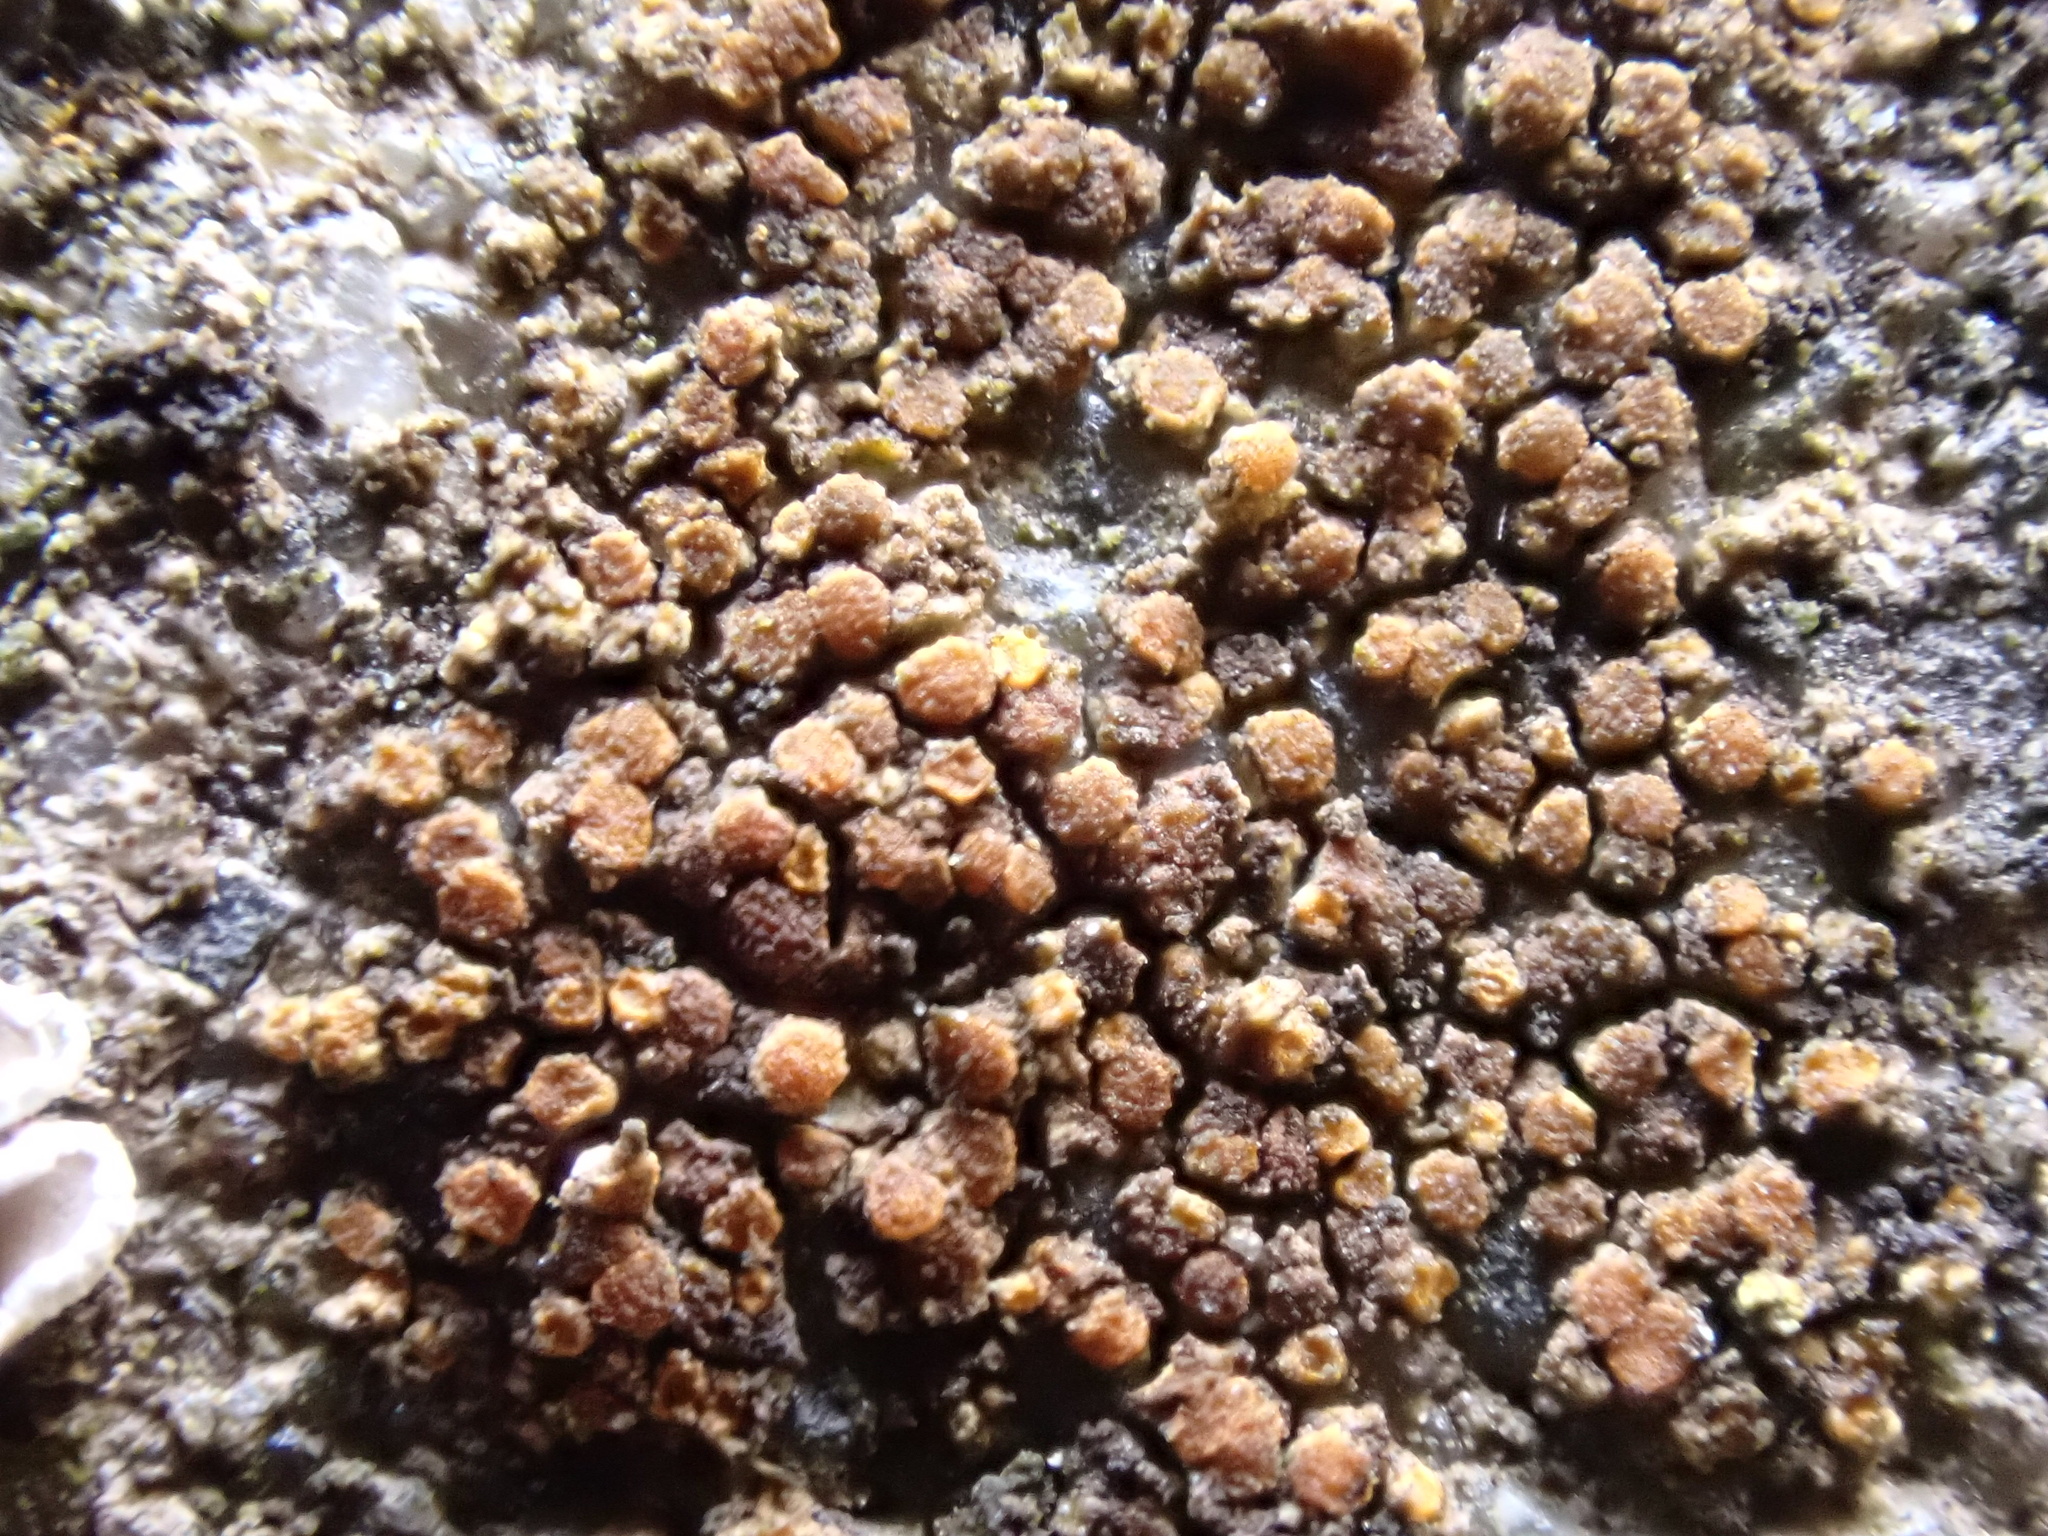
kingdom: Fungi
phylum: Ascomycota
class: Lecanoromycetes
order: Teloschistales
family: Teloschistaceae
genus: Flavoplaca
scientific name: Flavoplaca oasis
